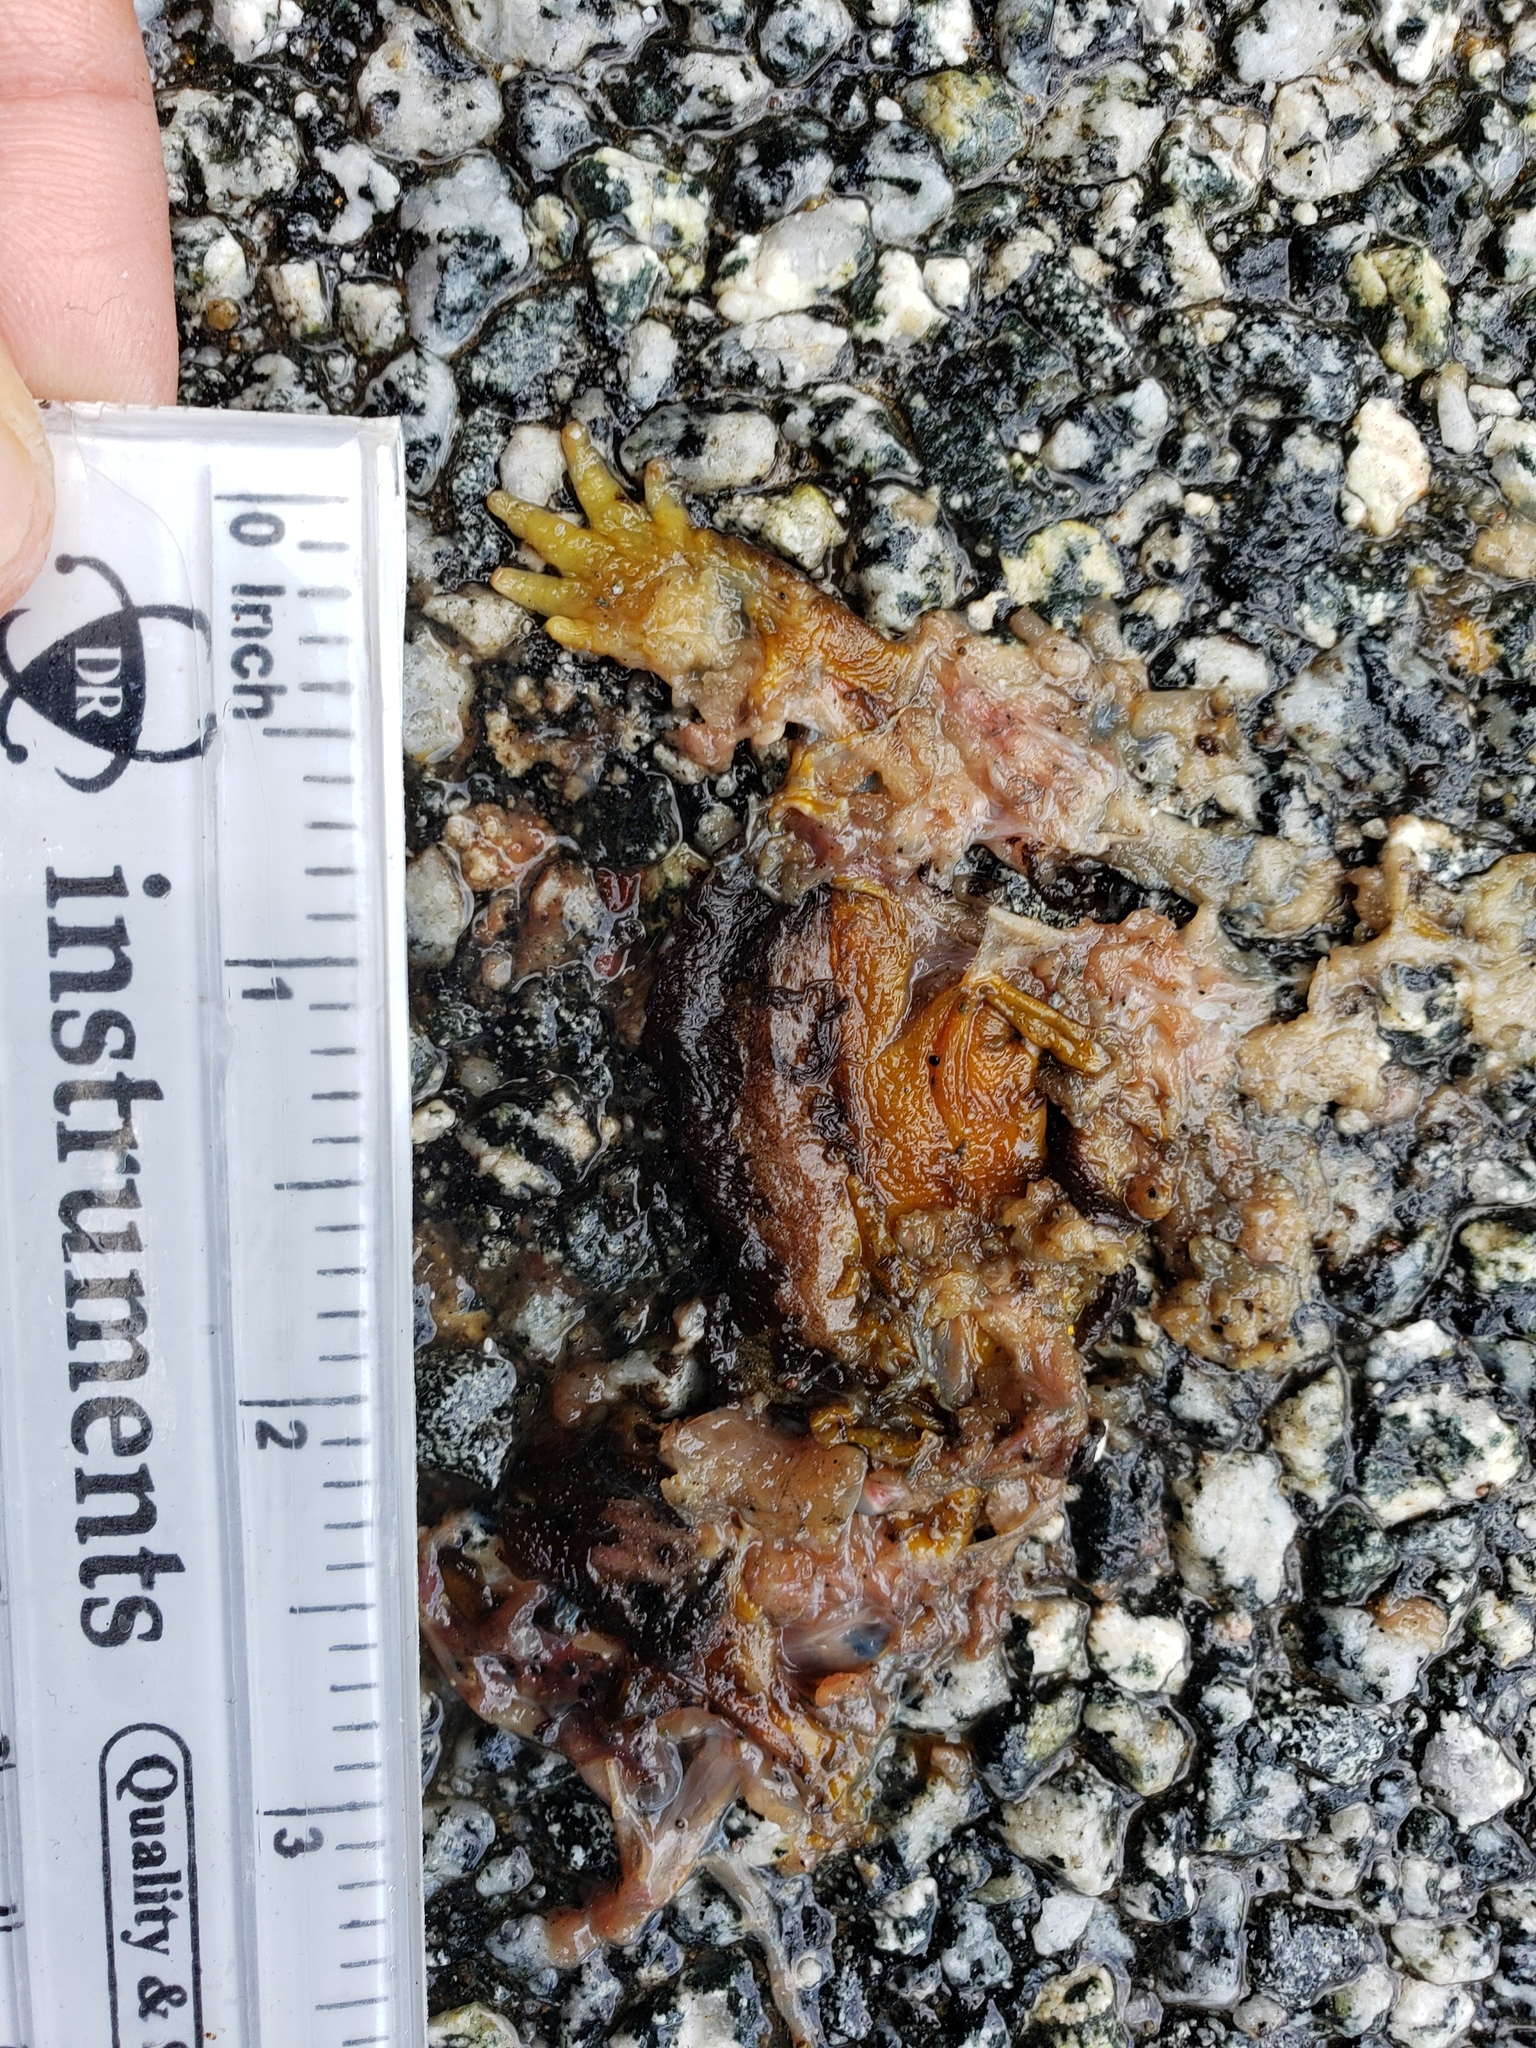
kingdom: Animalia
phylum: Chordata
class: Amphibia
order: Caudata
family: Salamandridae
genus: Taricha
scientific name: Taricha
